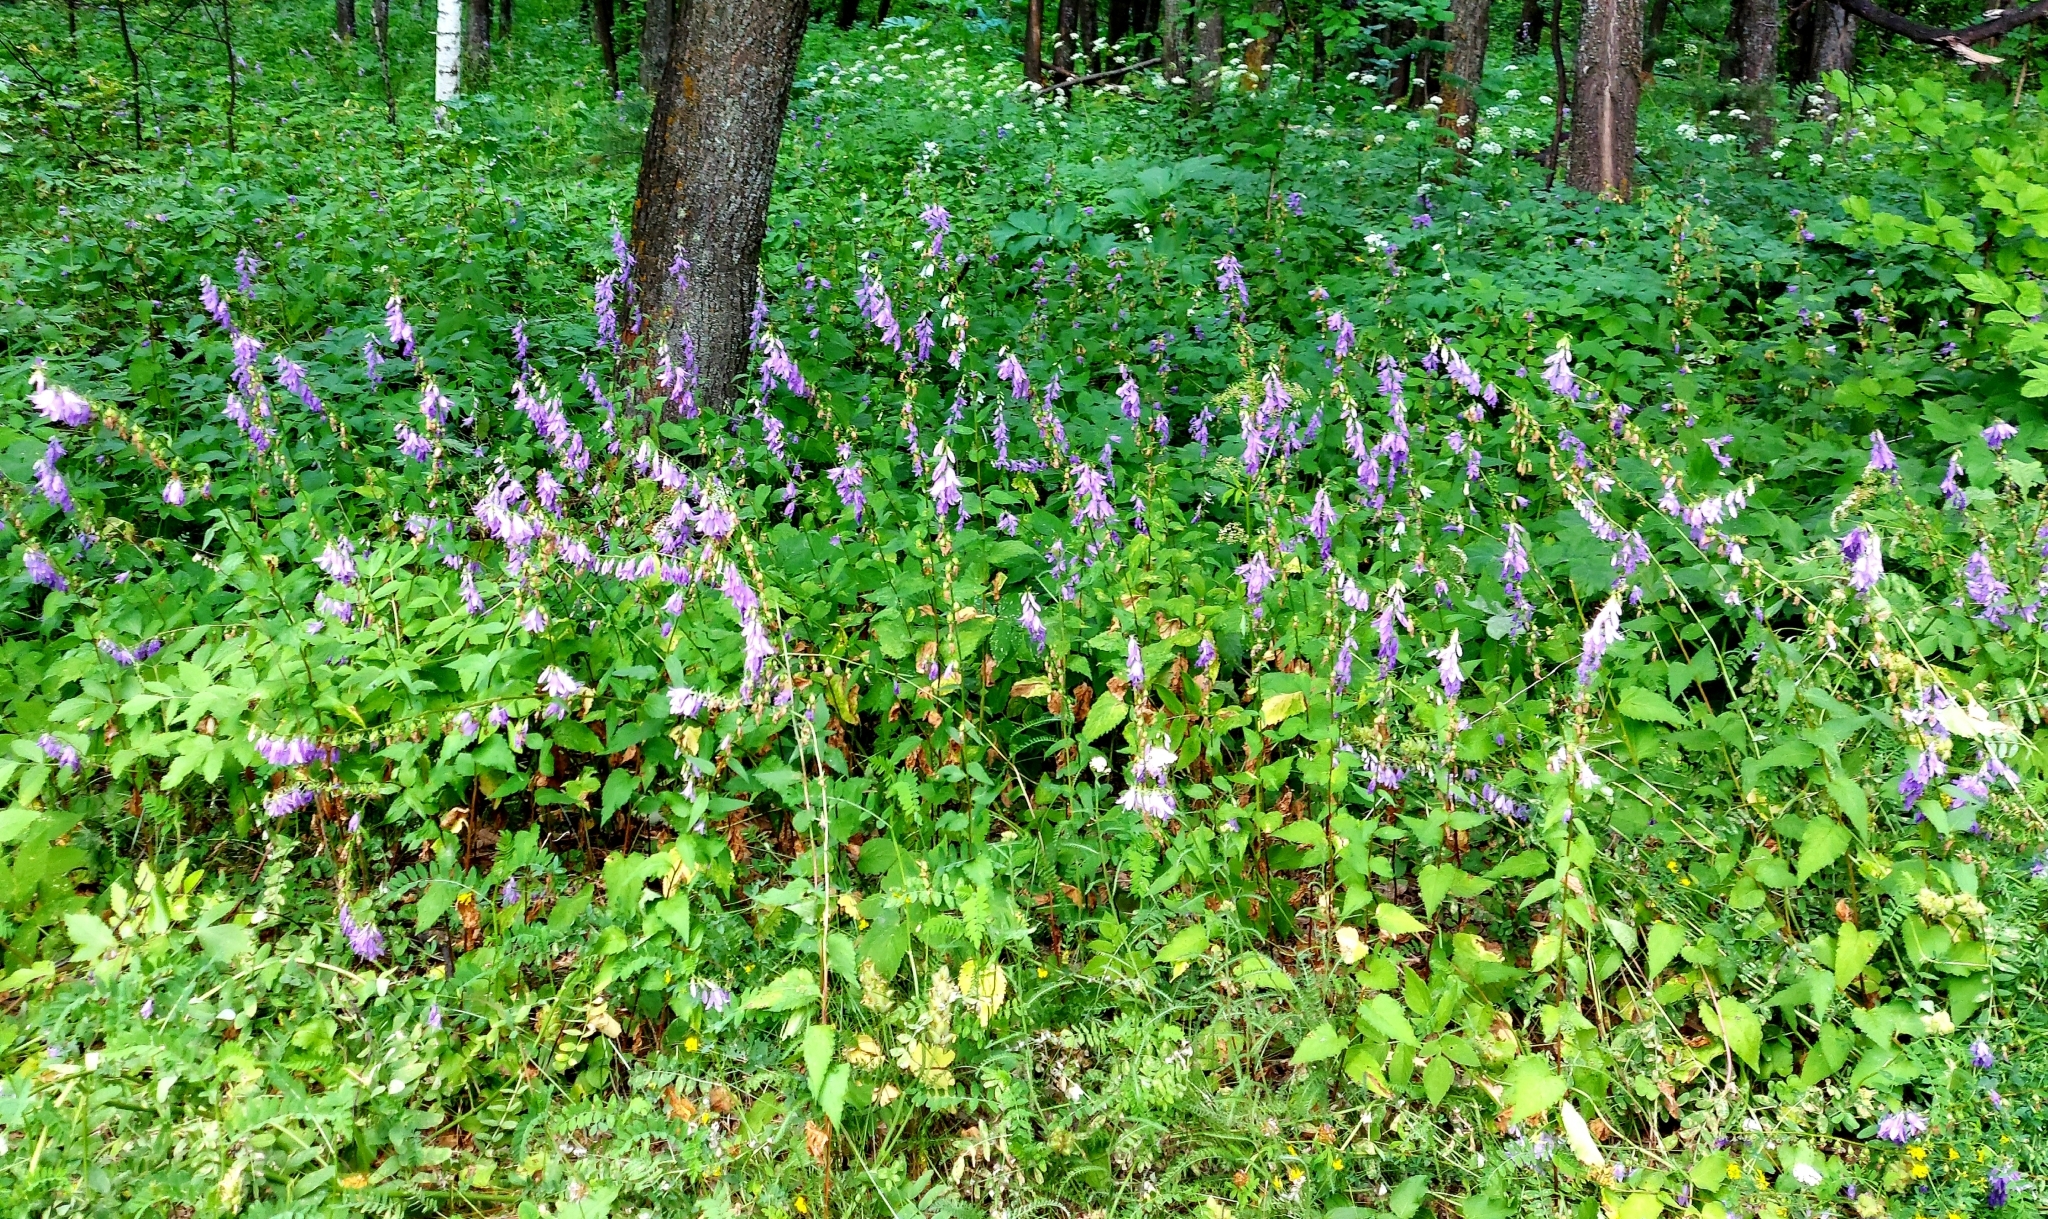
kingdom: Plantae
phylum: Tracheophyta
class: Magnoliopsida
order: Asterales
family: Campanulaceae
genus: Campanula
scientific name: Campanula rapunculoides
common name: Creeping bellflower
